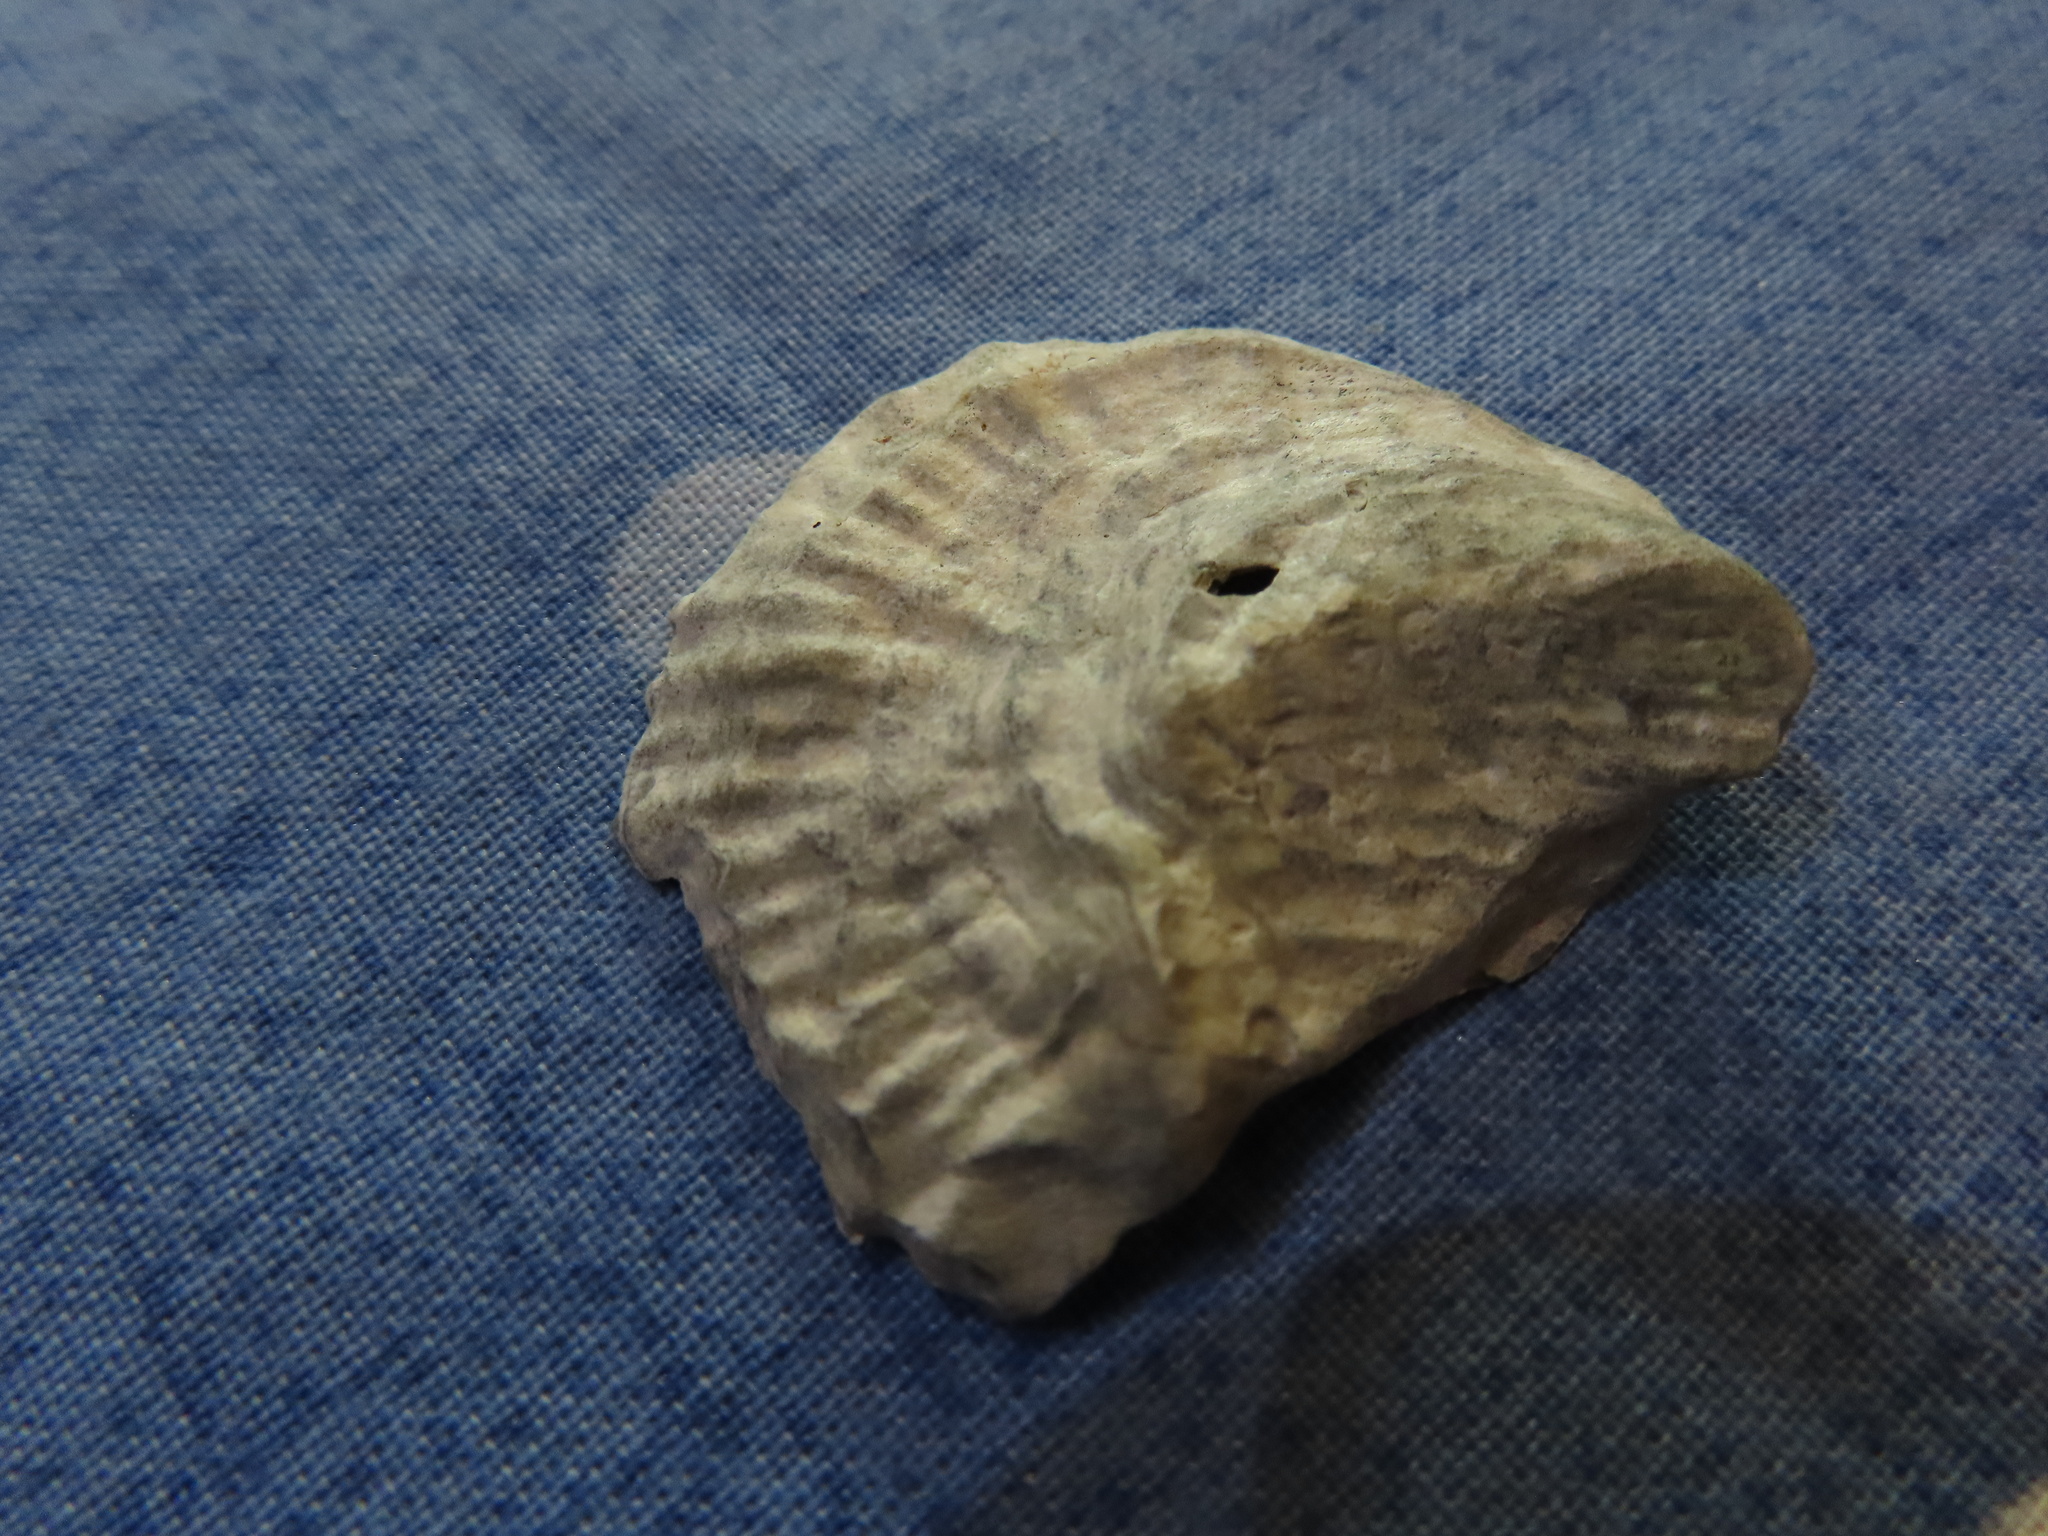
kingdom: Animalia
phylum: Mollusca
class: Bivalvia
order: Ostreida
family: Ostreidae
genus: Ostrea
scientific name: Ostrea edulis
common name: Flat oyster
